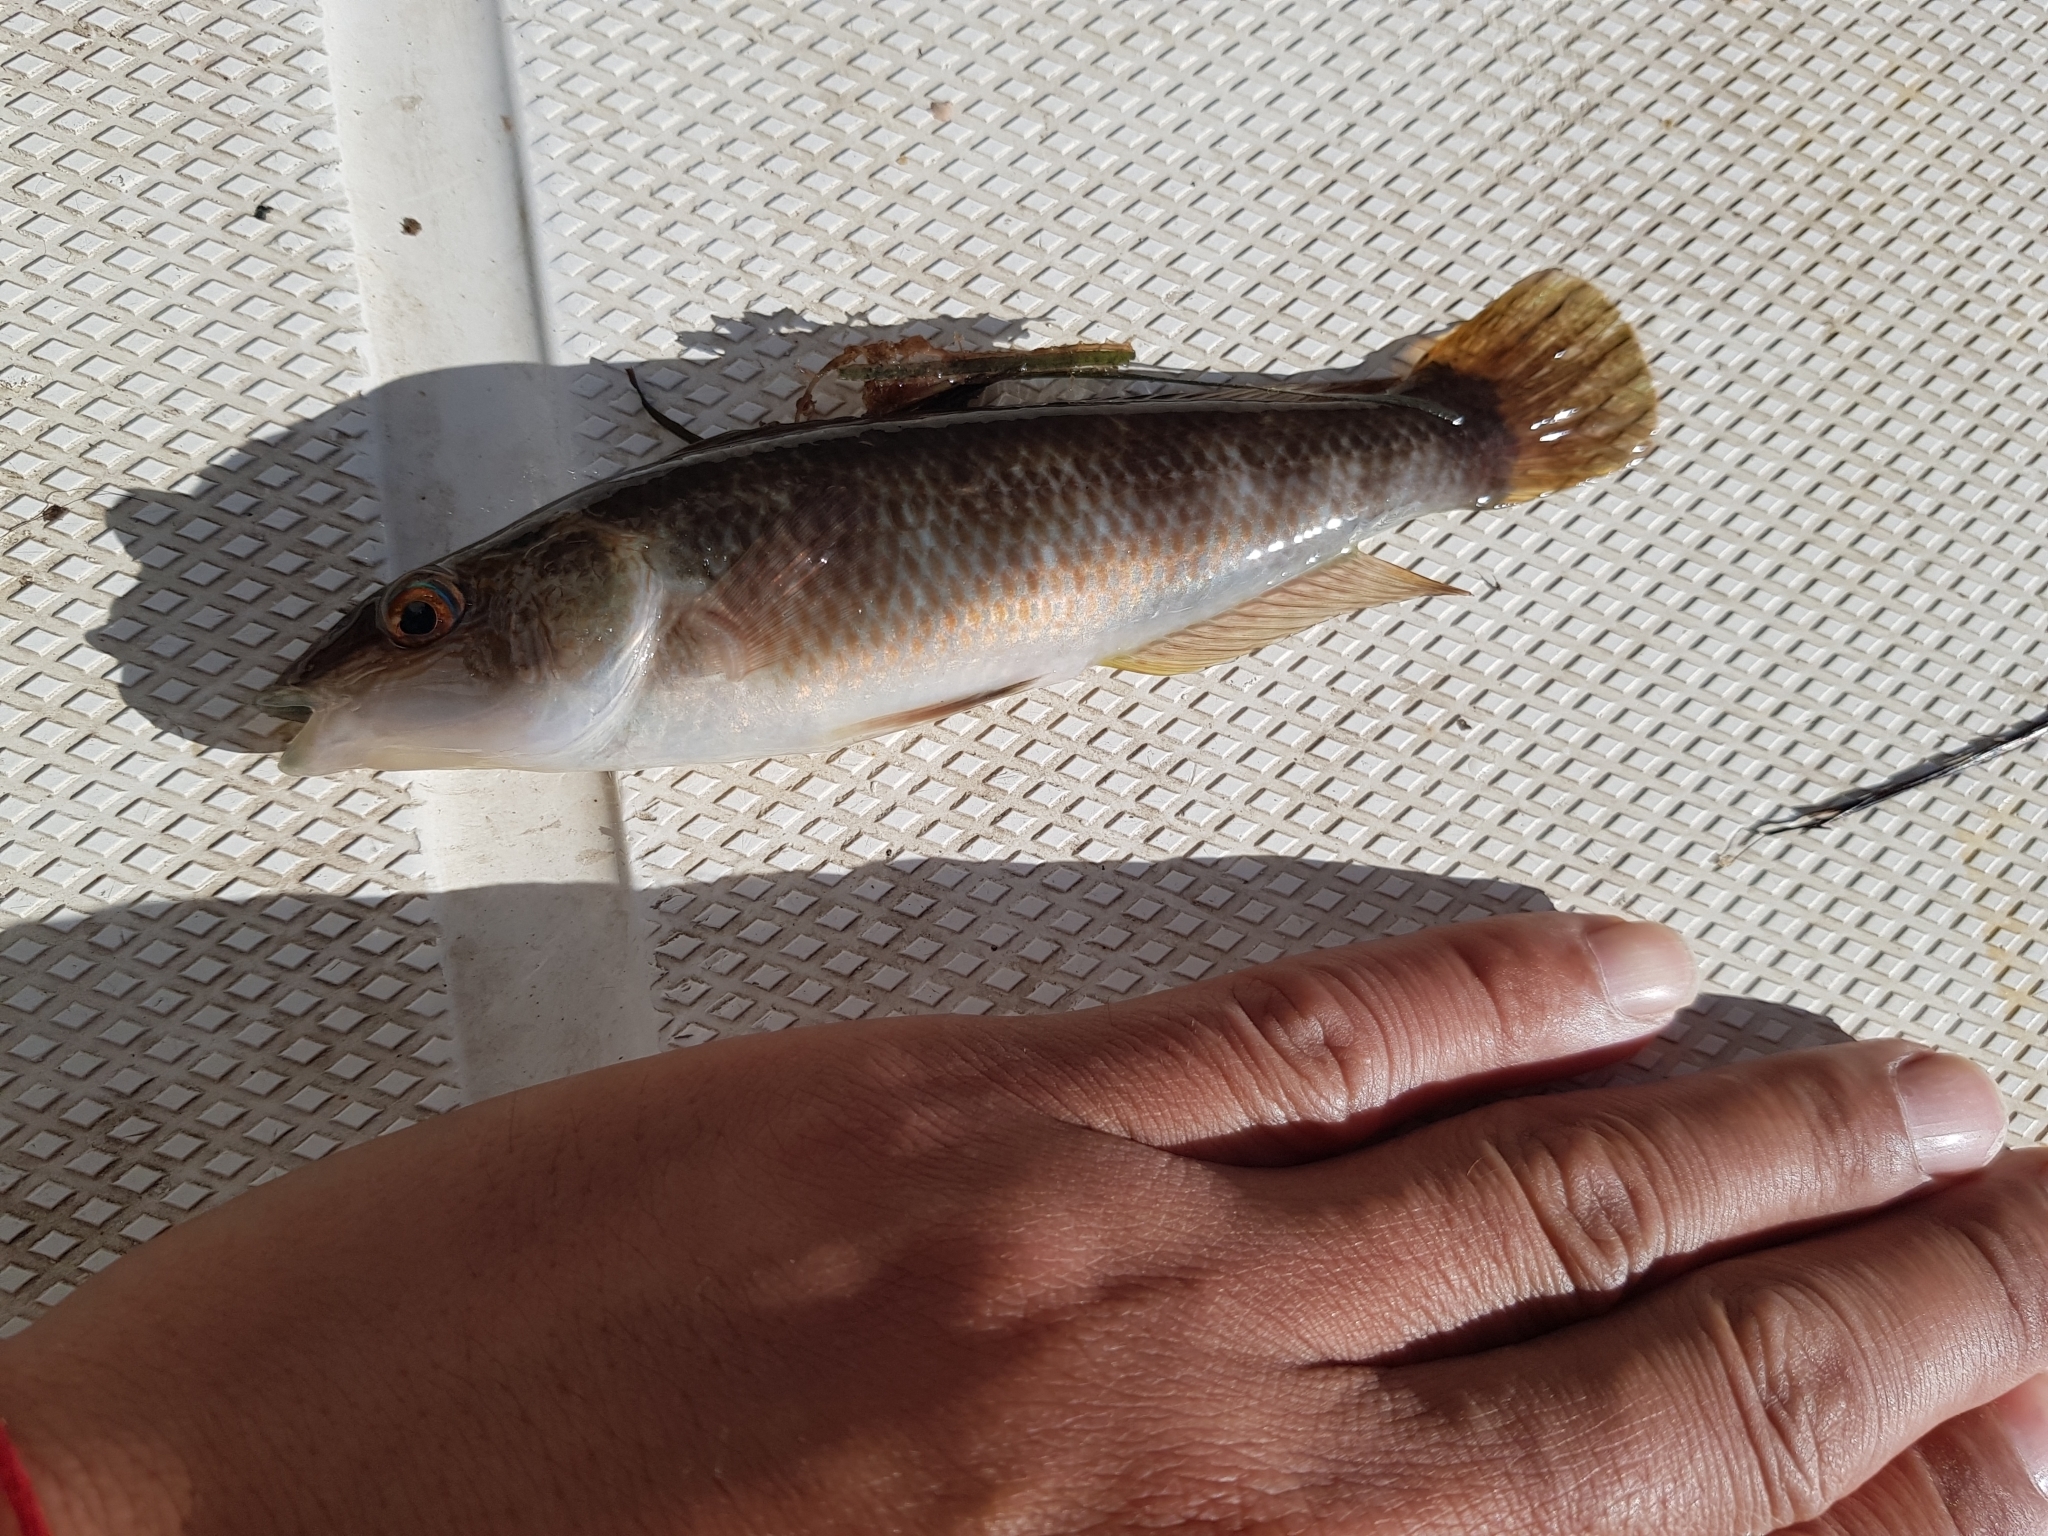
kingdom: Animalia
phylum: Chordata
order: Perciformes
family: Odacidae
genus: Neoodax
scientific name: Neoodax balteatus
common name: Ground mullet
